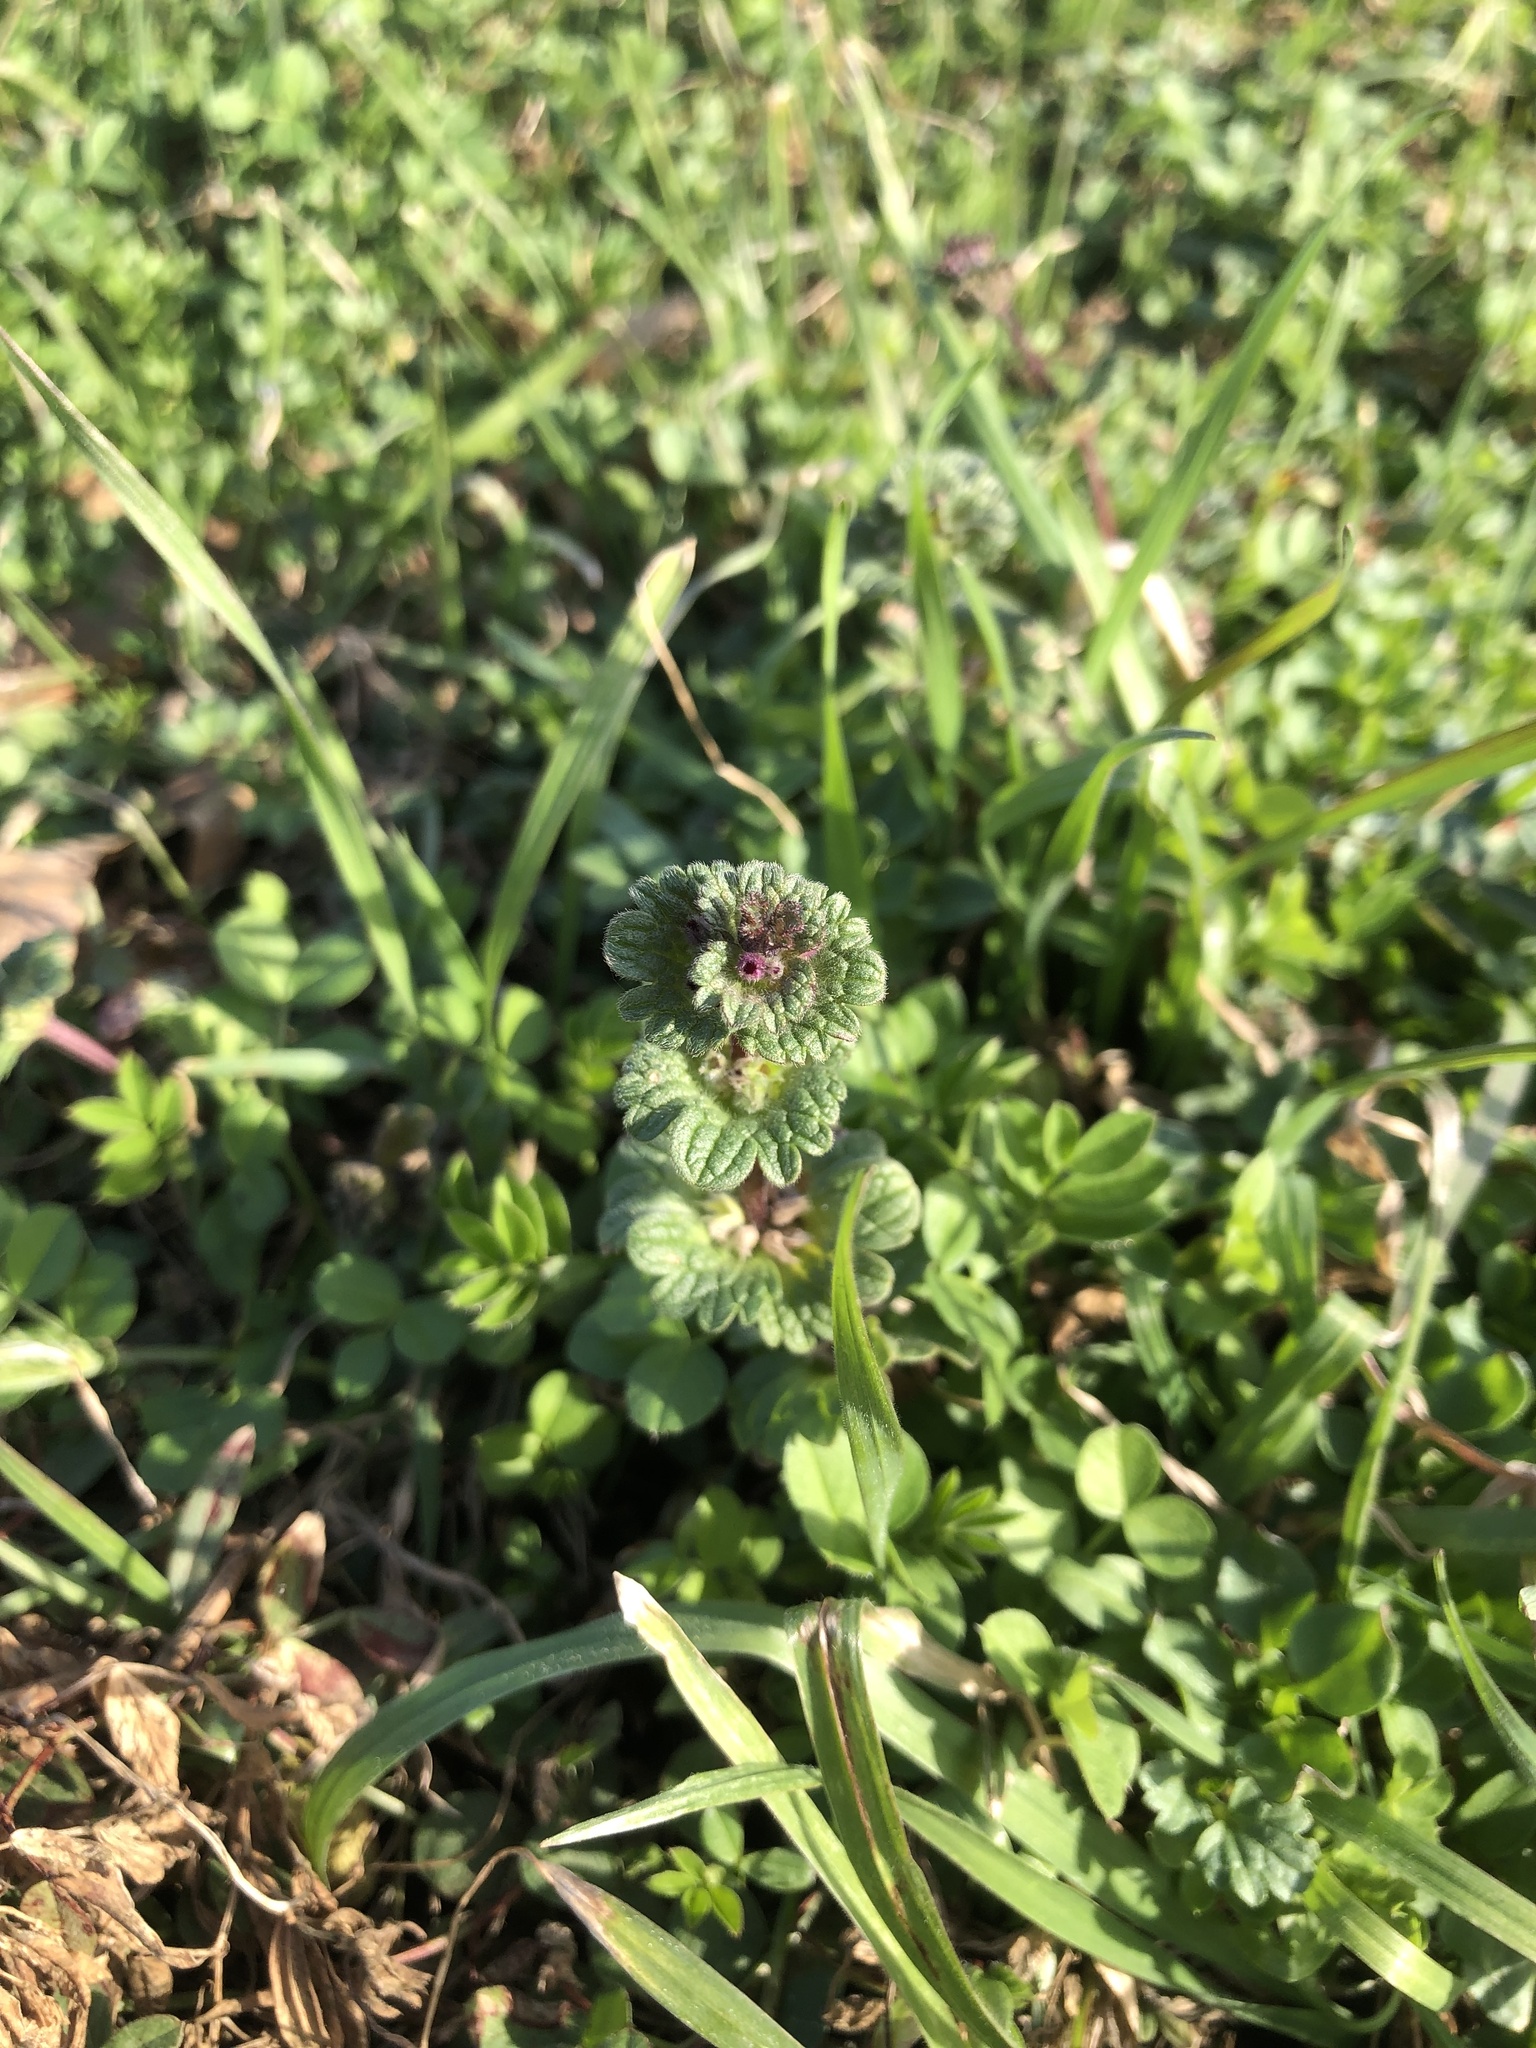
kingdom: Plantae
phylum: Tracheophyta
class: Magnoliopsida
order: Lamiales
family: Lamiaceae
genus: Lamium
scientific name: Lamium amplexicaule
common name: Henbit dead-nettle
